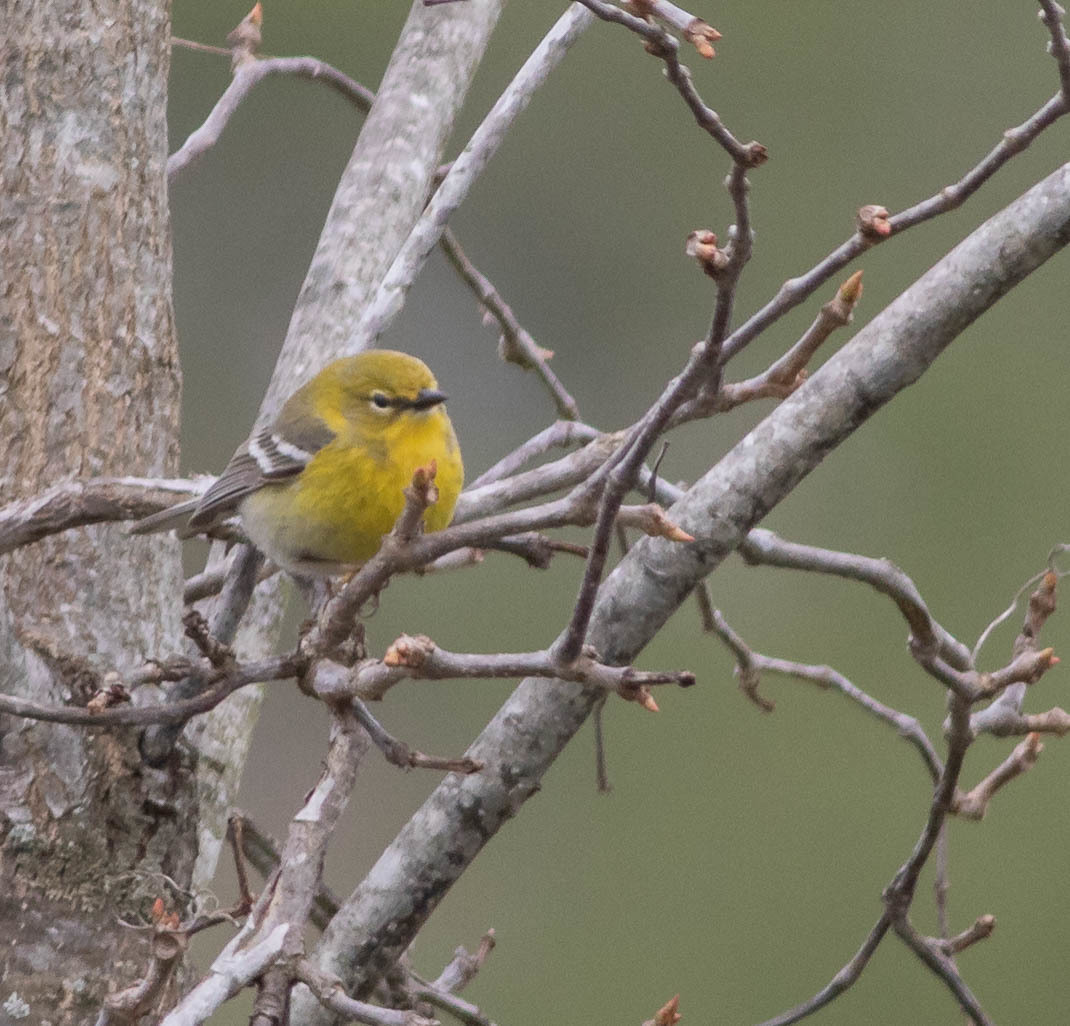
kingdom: Animalia
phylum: Chordata
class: Aves
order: Passeriformes
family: Parulidae
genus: Setophaga
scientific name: Setophaga pinus
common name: Pine warbler
